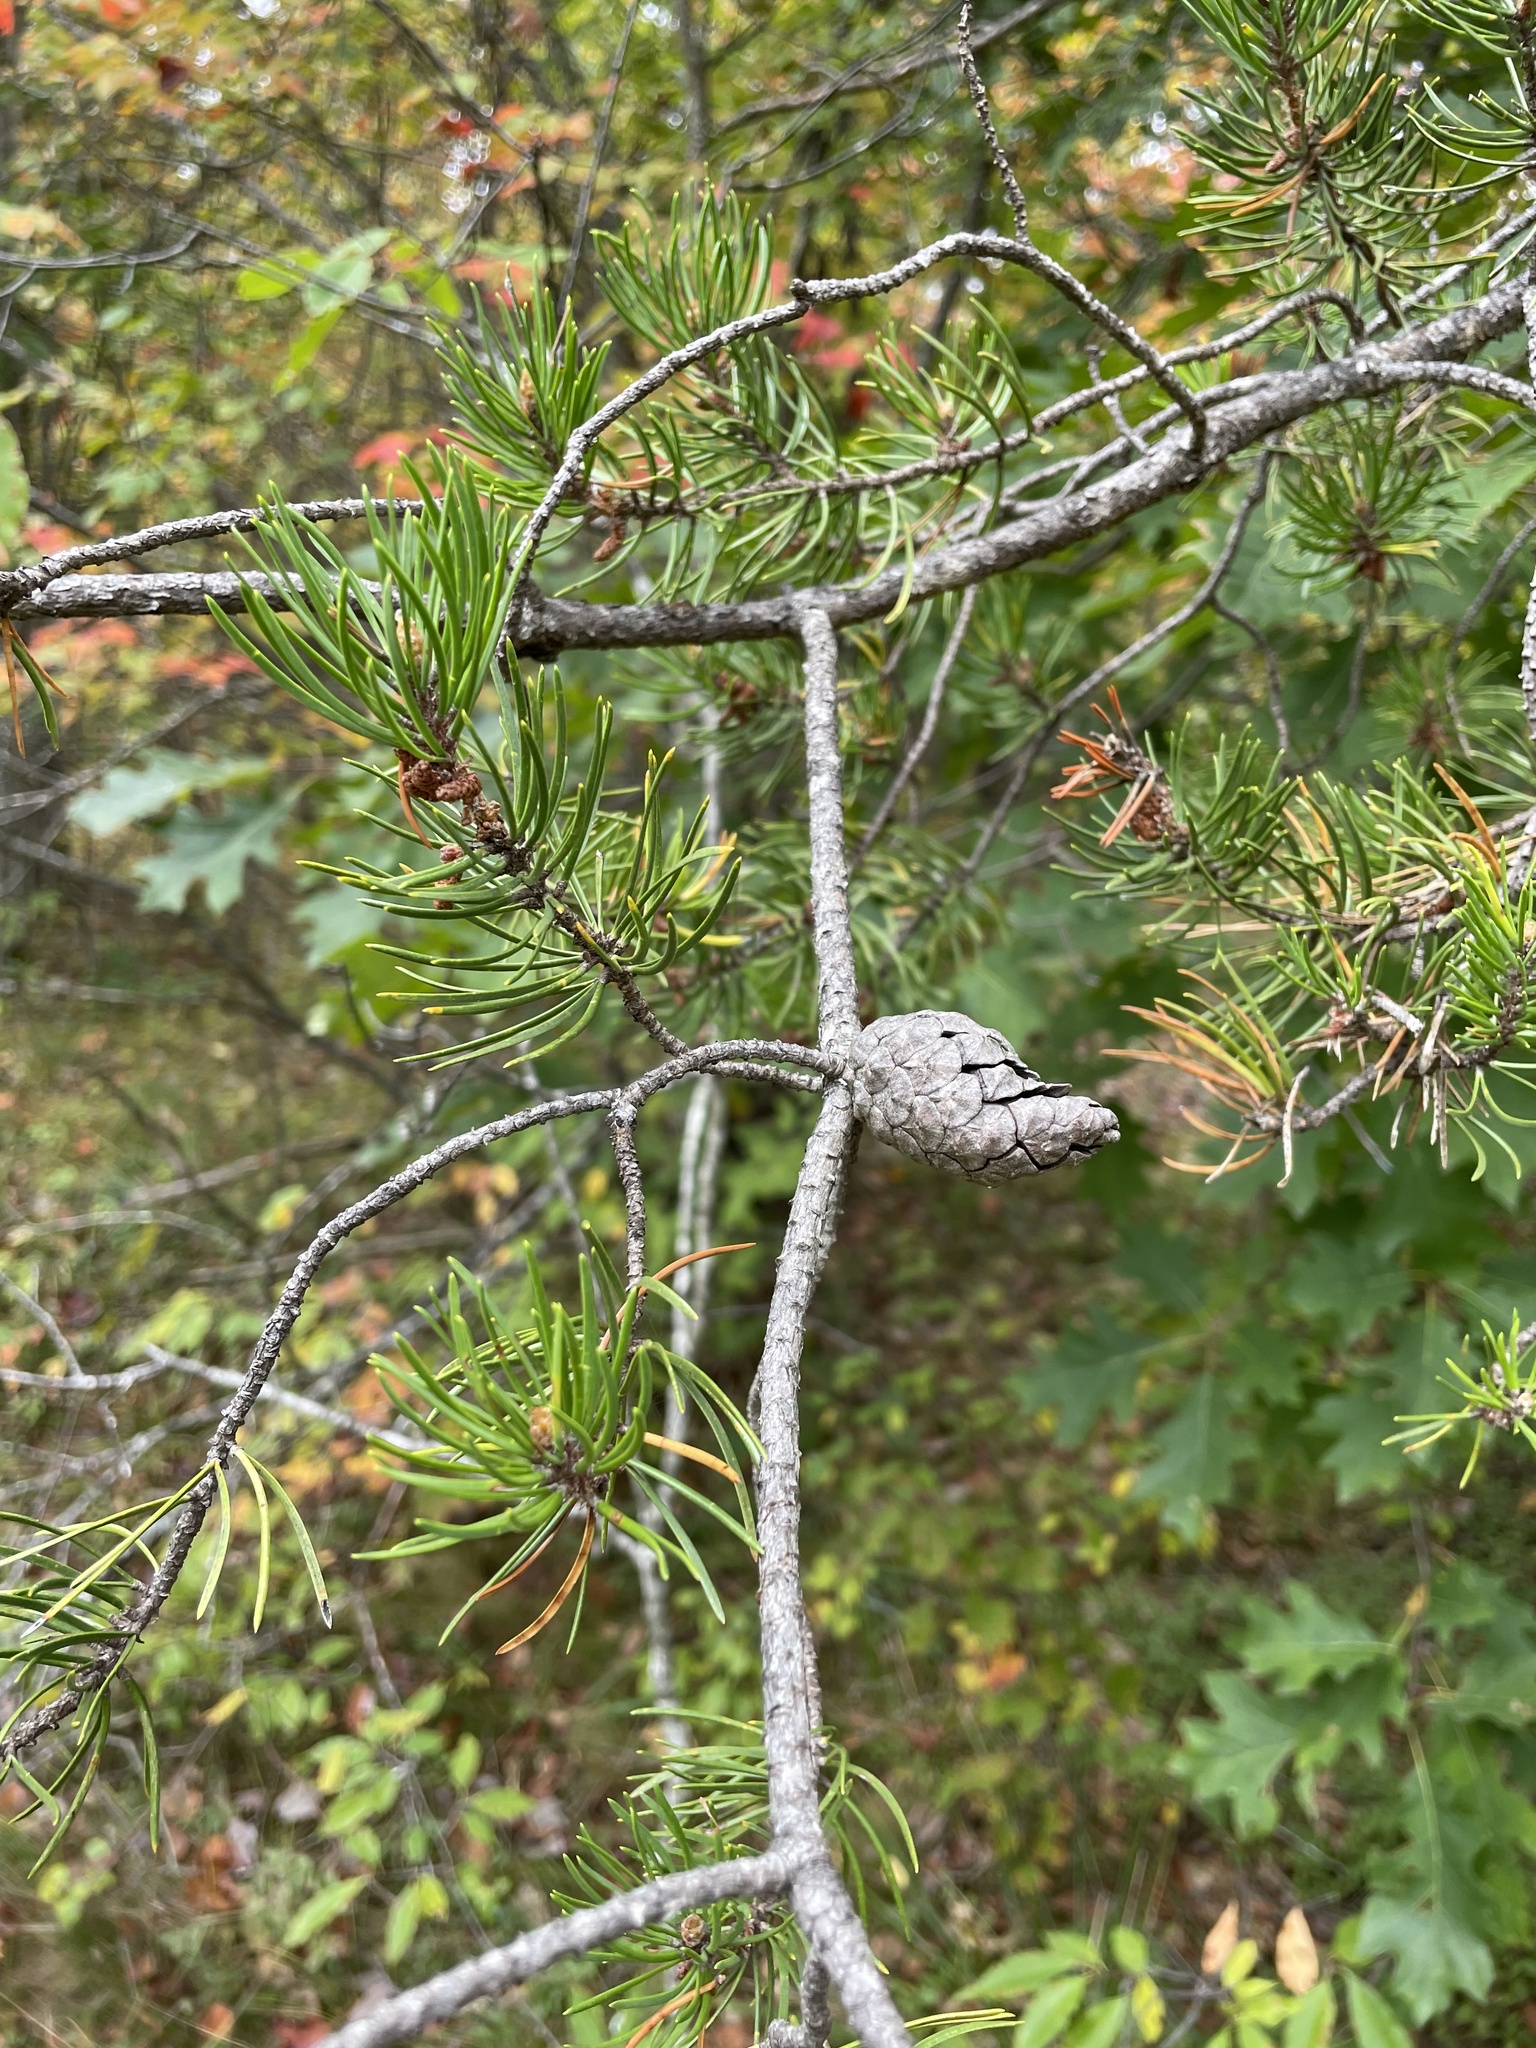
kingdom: Plantae
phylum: Tracheophyta
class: Pinopsida
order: Pinales
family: Pinaceae
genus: Pinus
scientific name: Pinus banksiana
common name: Jack pine
